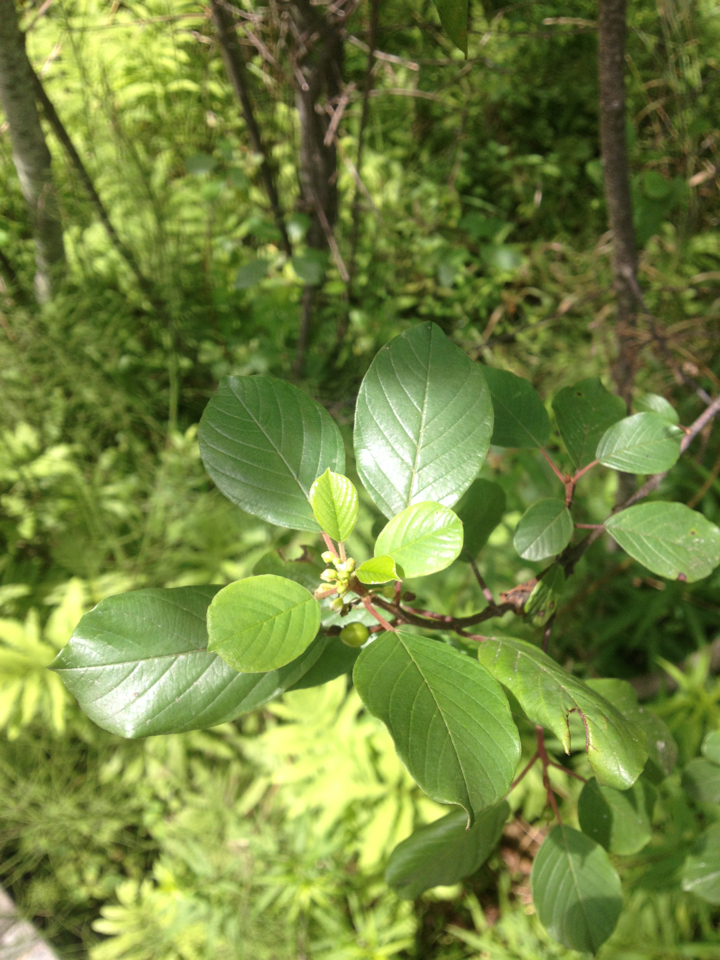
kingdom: Plantae
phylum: Tracheophyta
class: Magnoliopsida
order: Rosales
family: Rhamnaceae
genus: Frangula
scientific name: Frangula alnus
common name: Alder buckthorn
